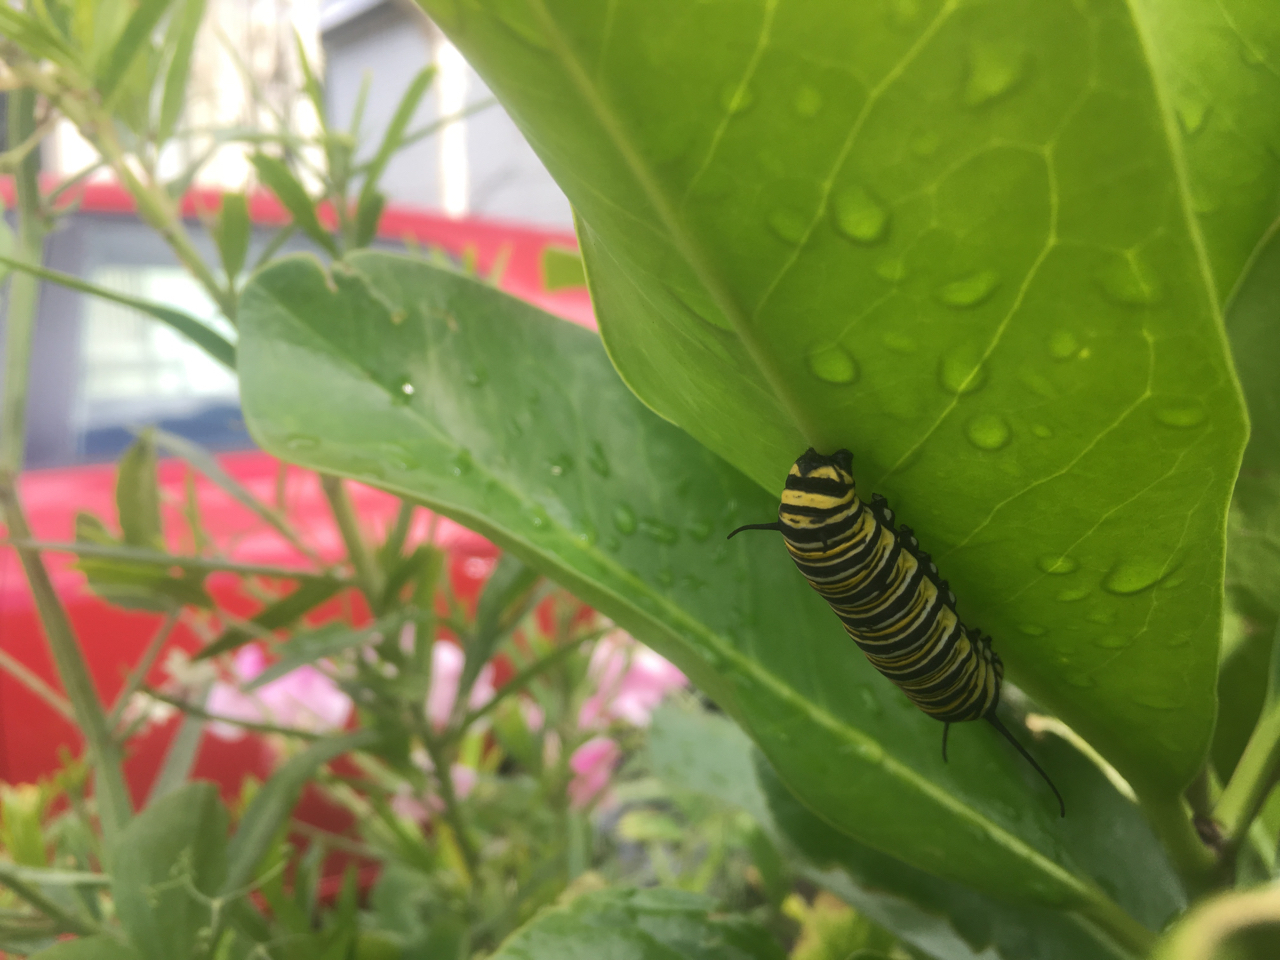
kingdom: Animalia
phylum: Arthropoda
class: Insecta
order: Lepidoptera
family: Nymphalidae
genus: Danaus
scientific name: Danaus plexippus
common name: Monarch
